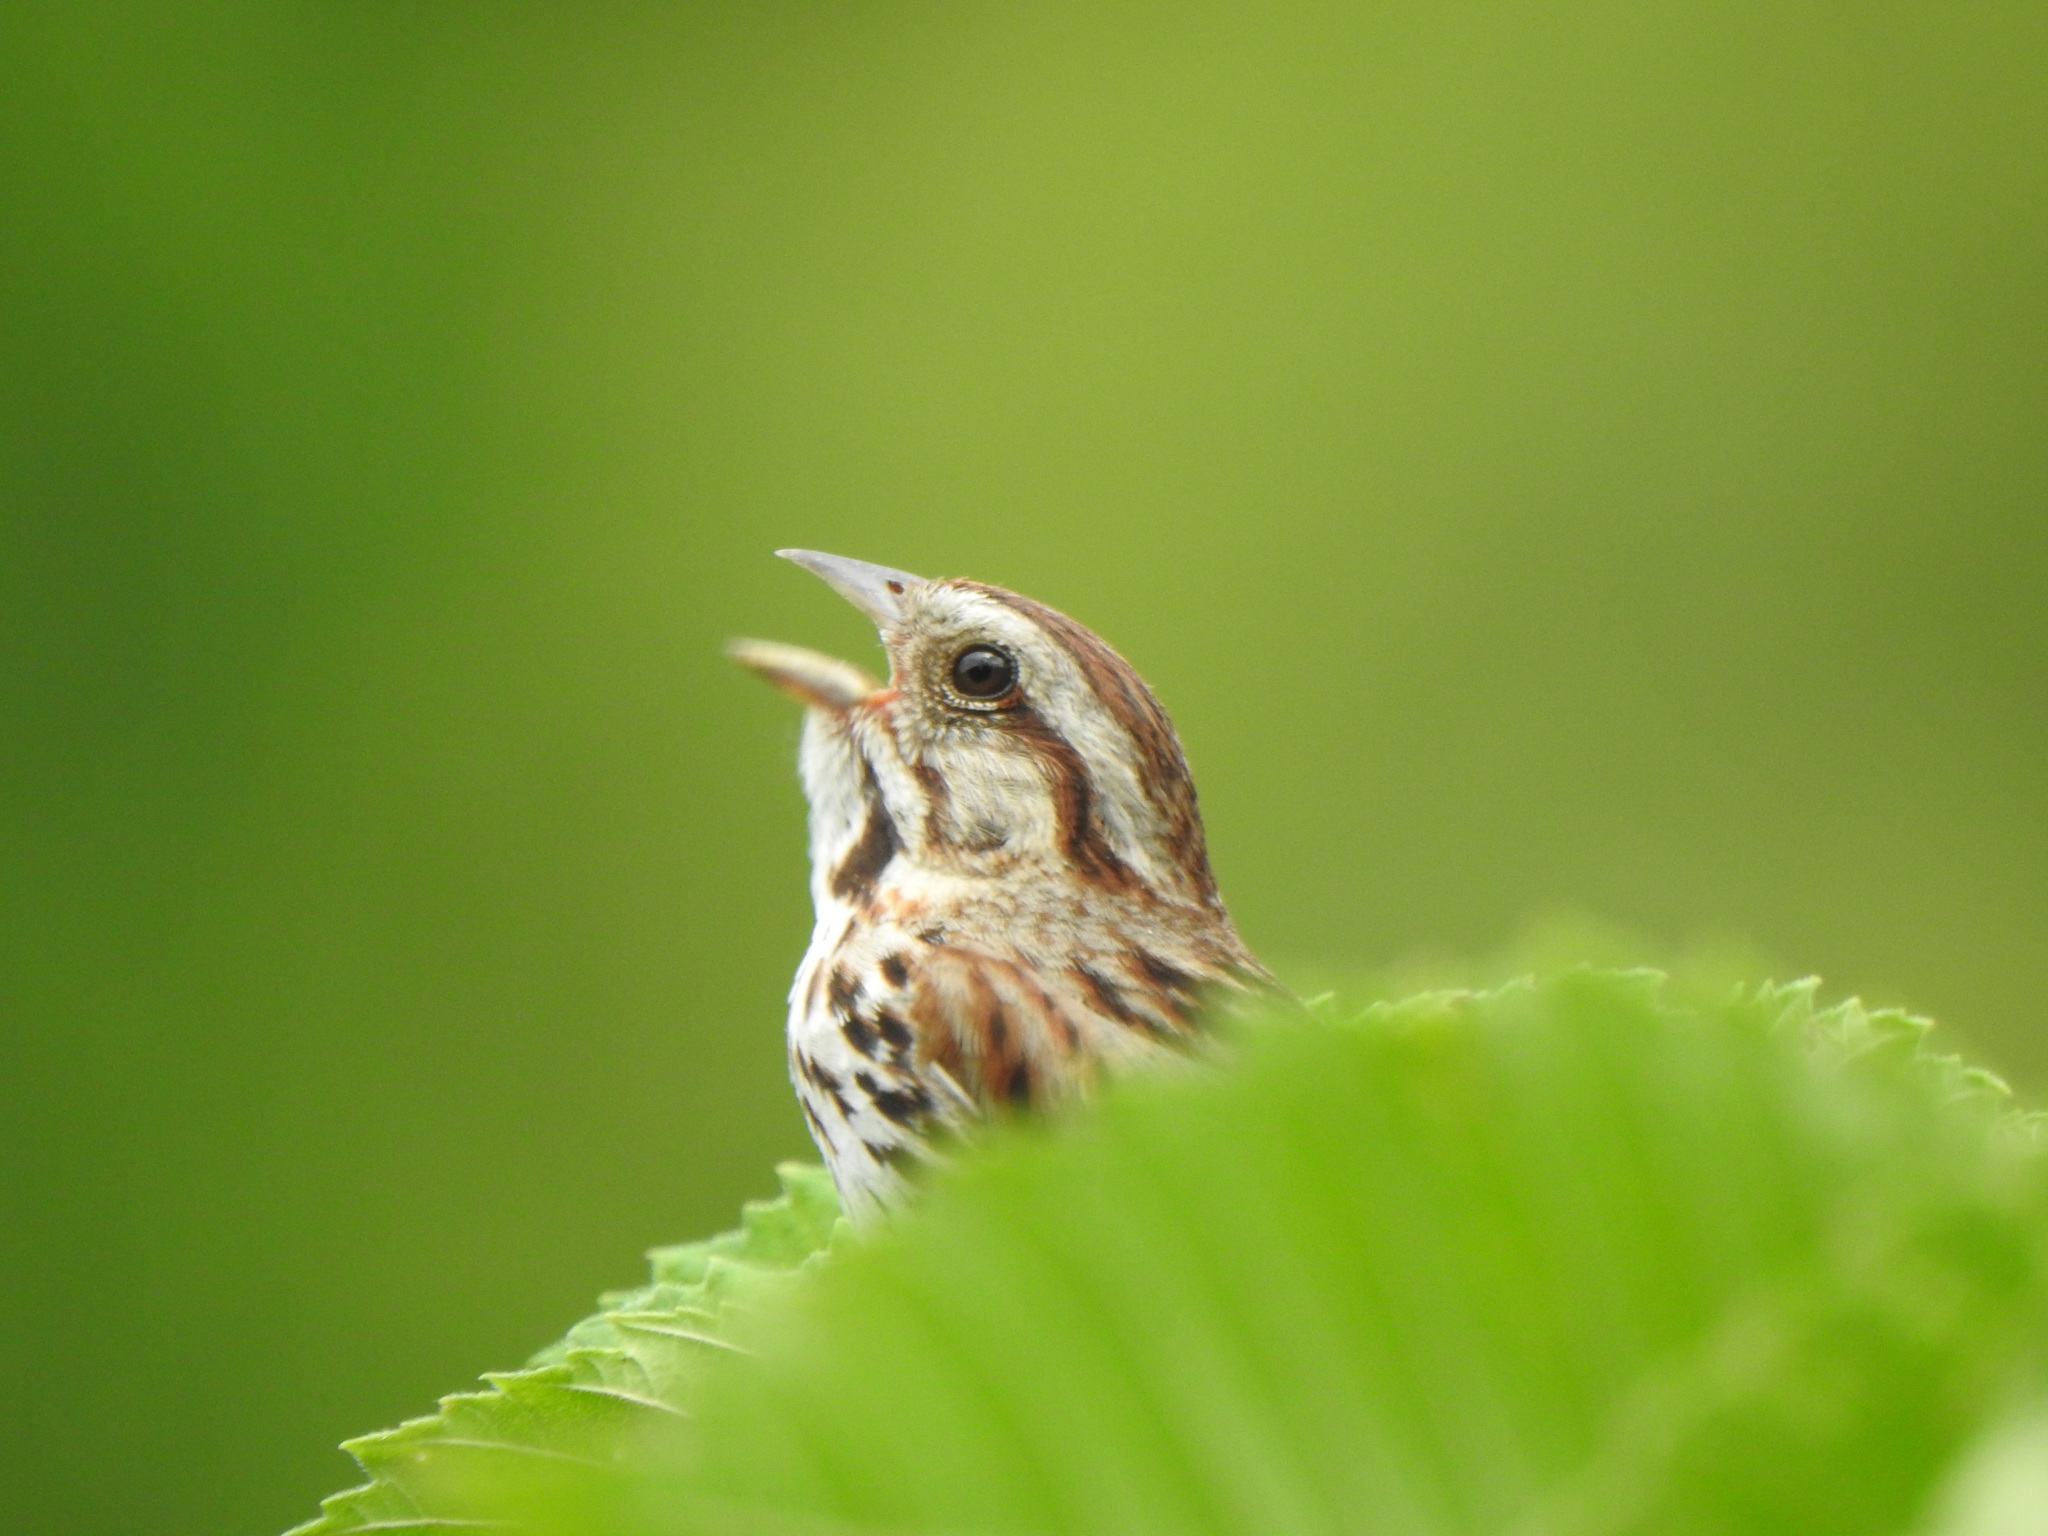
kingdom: Animalia
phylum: Chordata
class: Aves
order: Passeriformes
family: Passerellidae
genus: Melospiza
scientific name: Melospiza melodia
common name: Song sparrow
